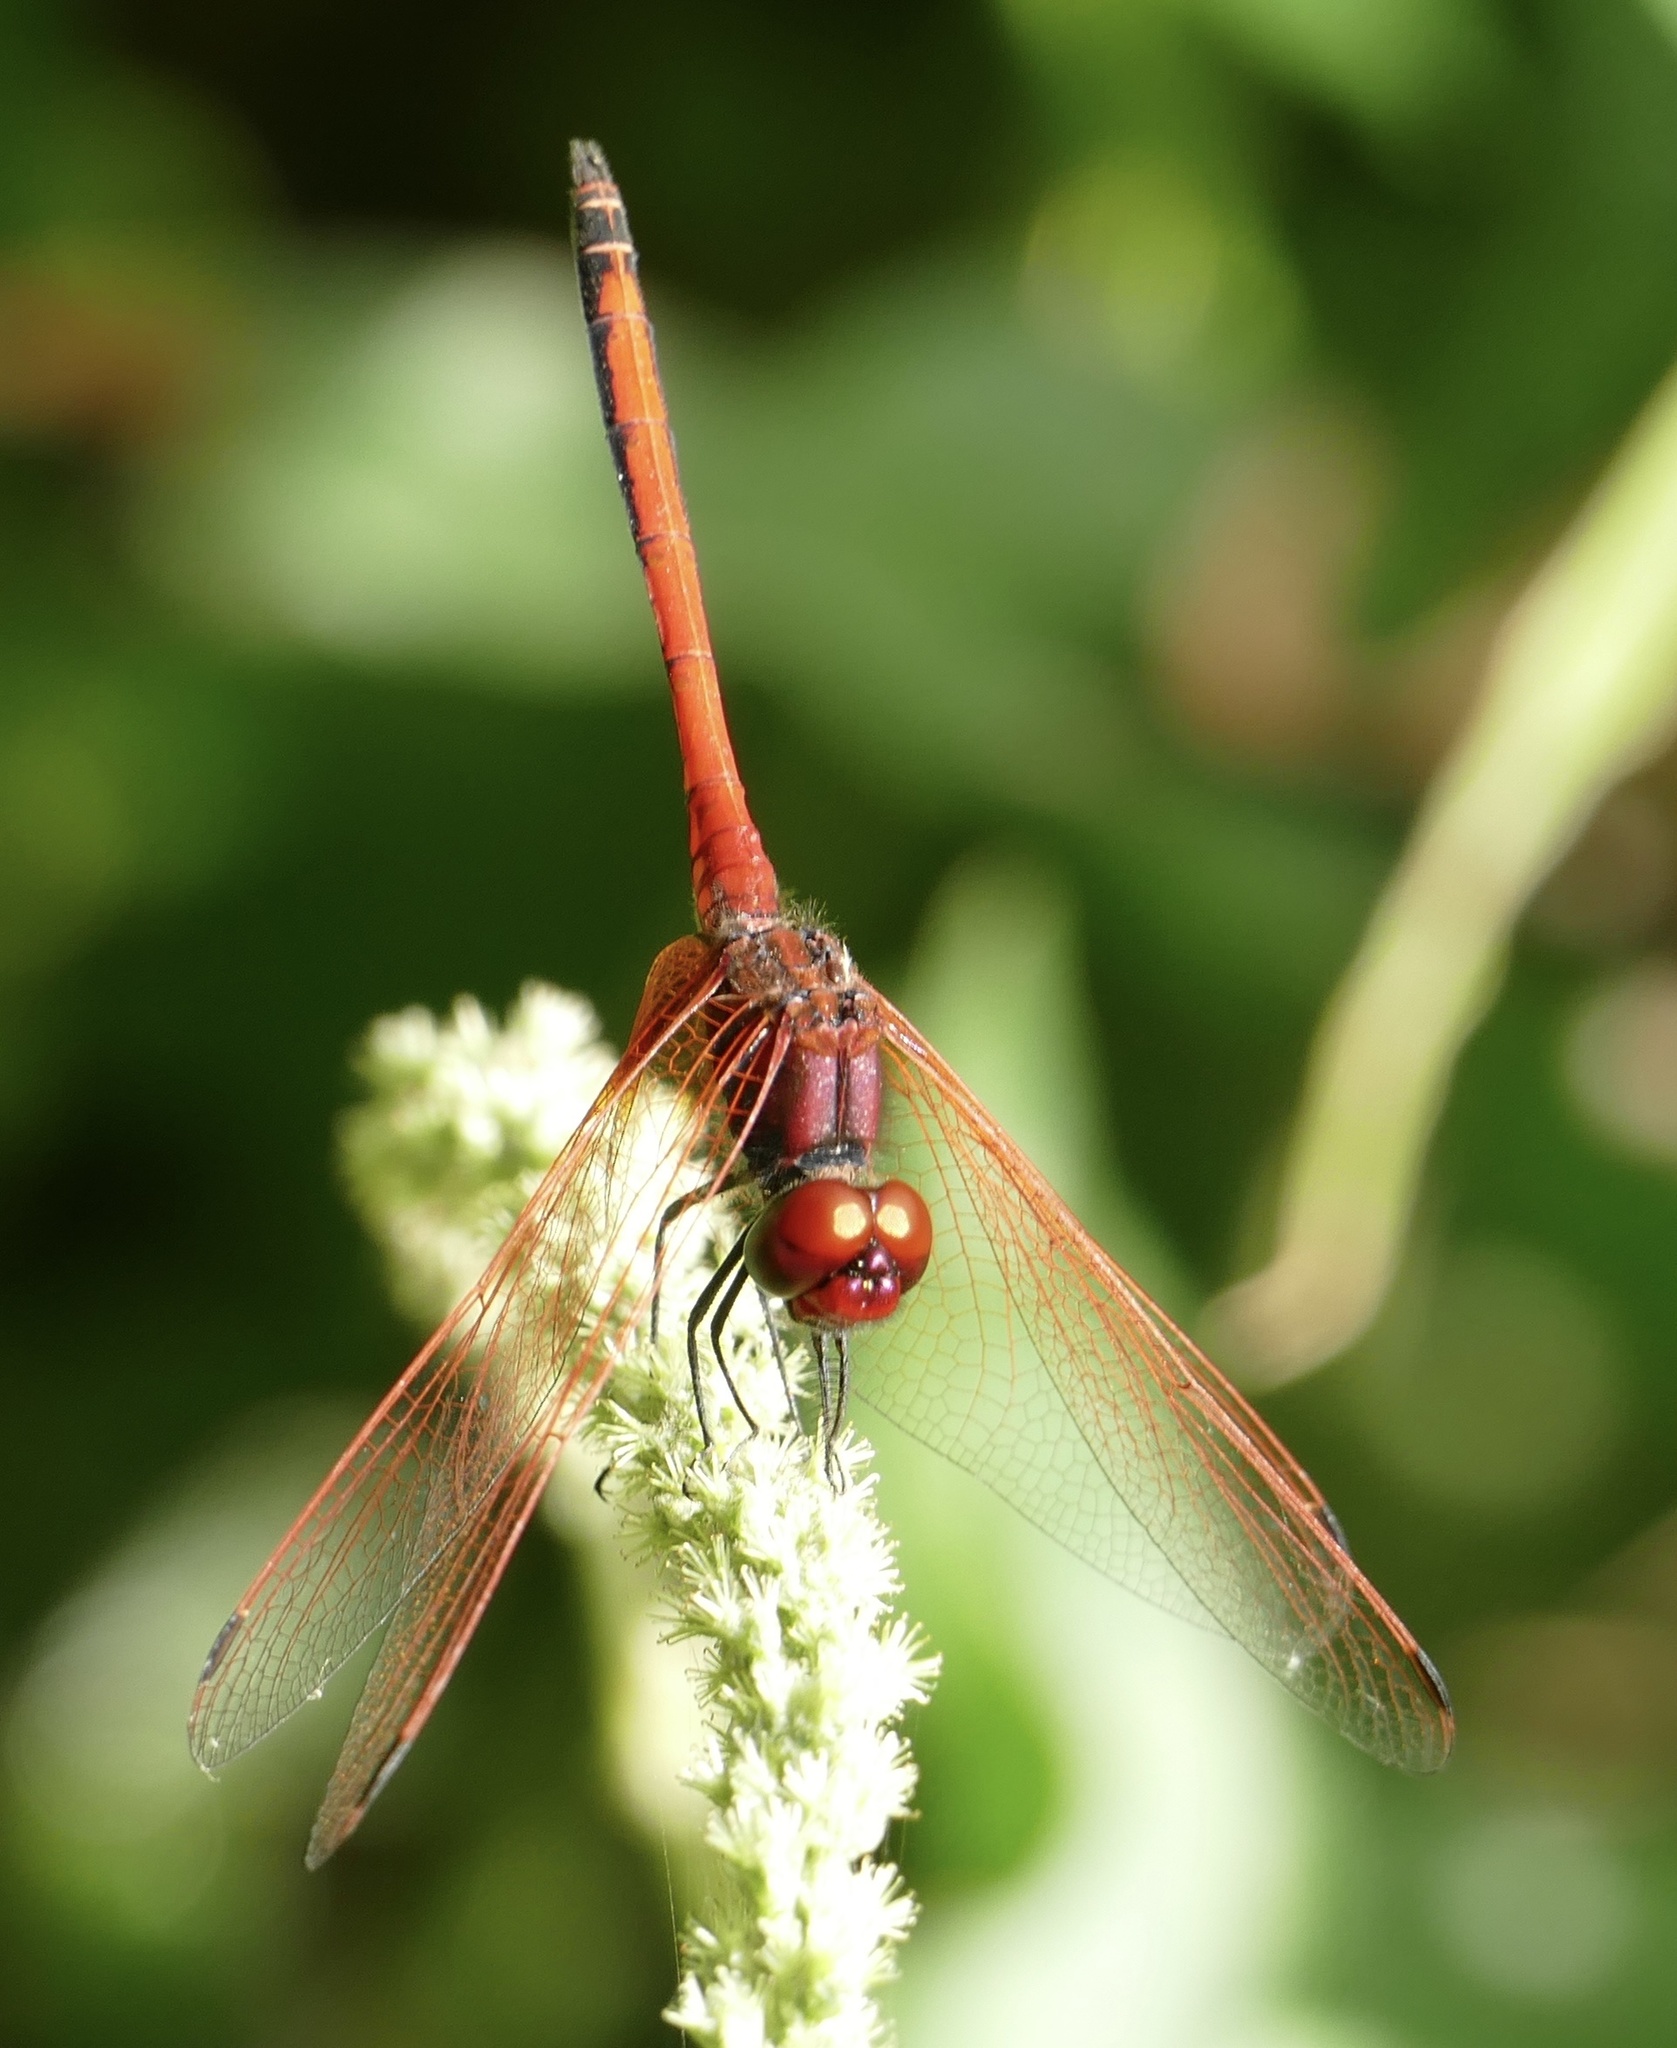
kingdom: Animalia
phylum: Arthropoda
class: Insecta
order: Odonata
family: Libellulidae
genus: Trithemis
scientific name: Trithemis arteriosa
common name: Red-veined dropwing
